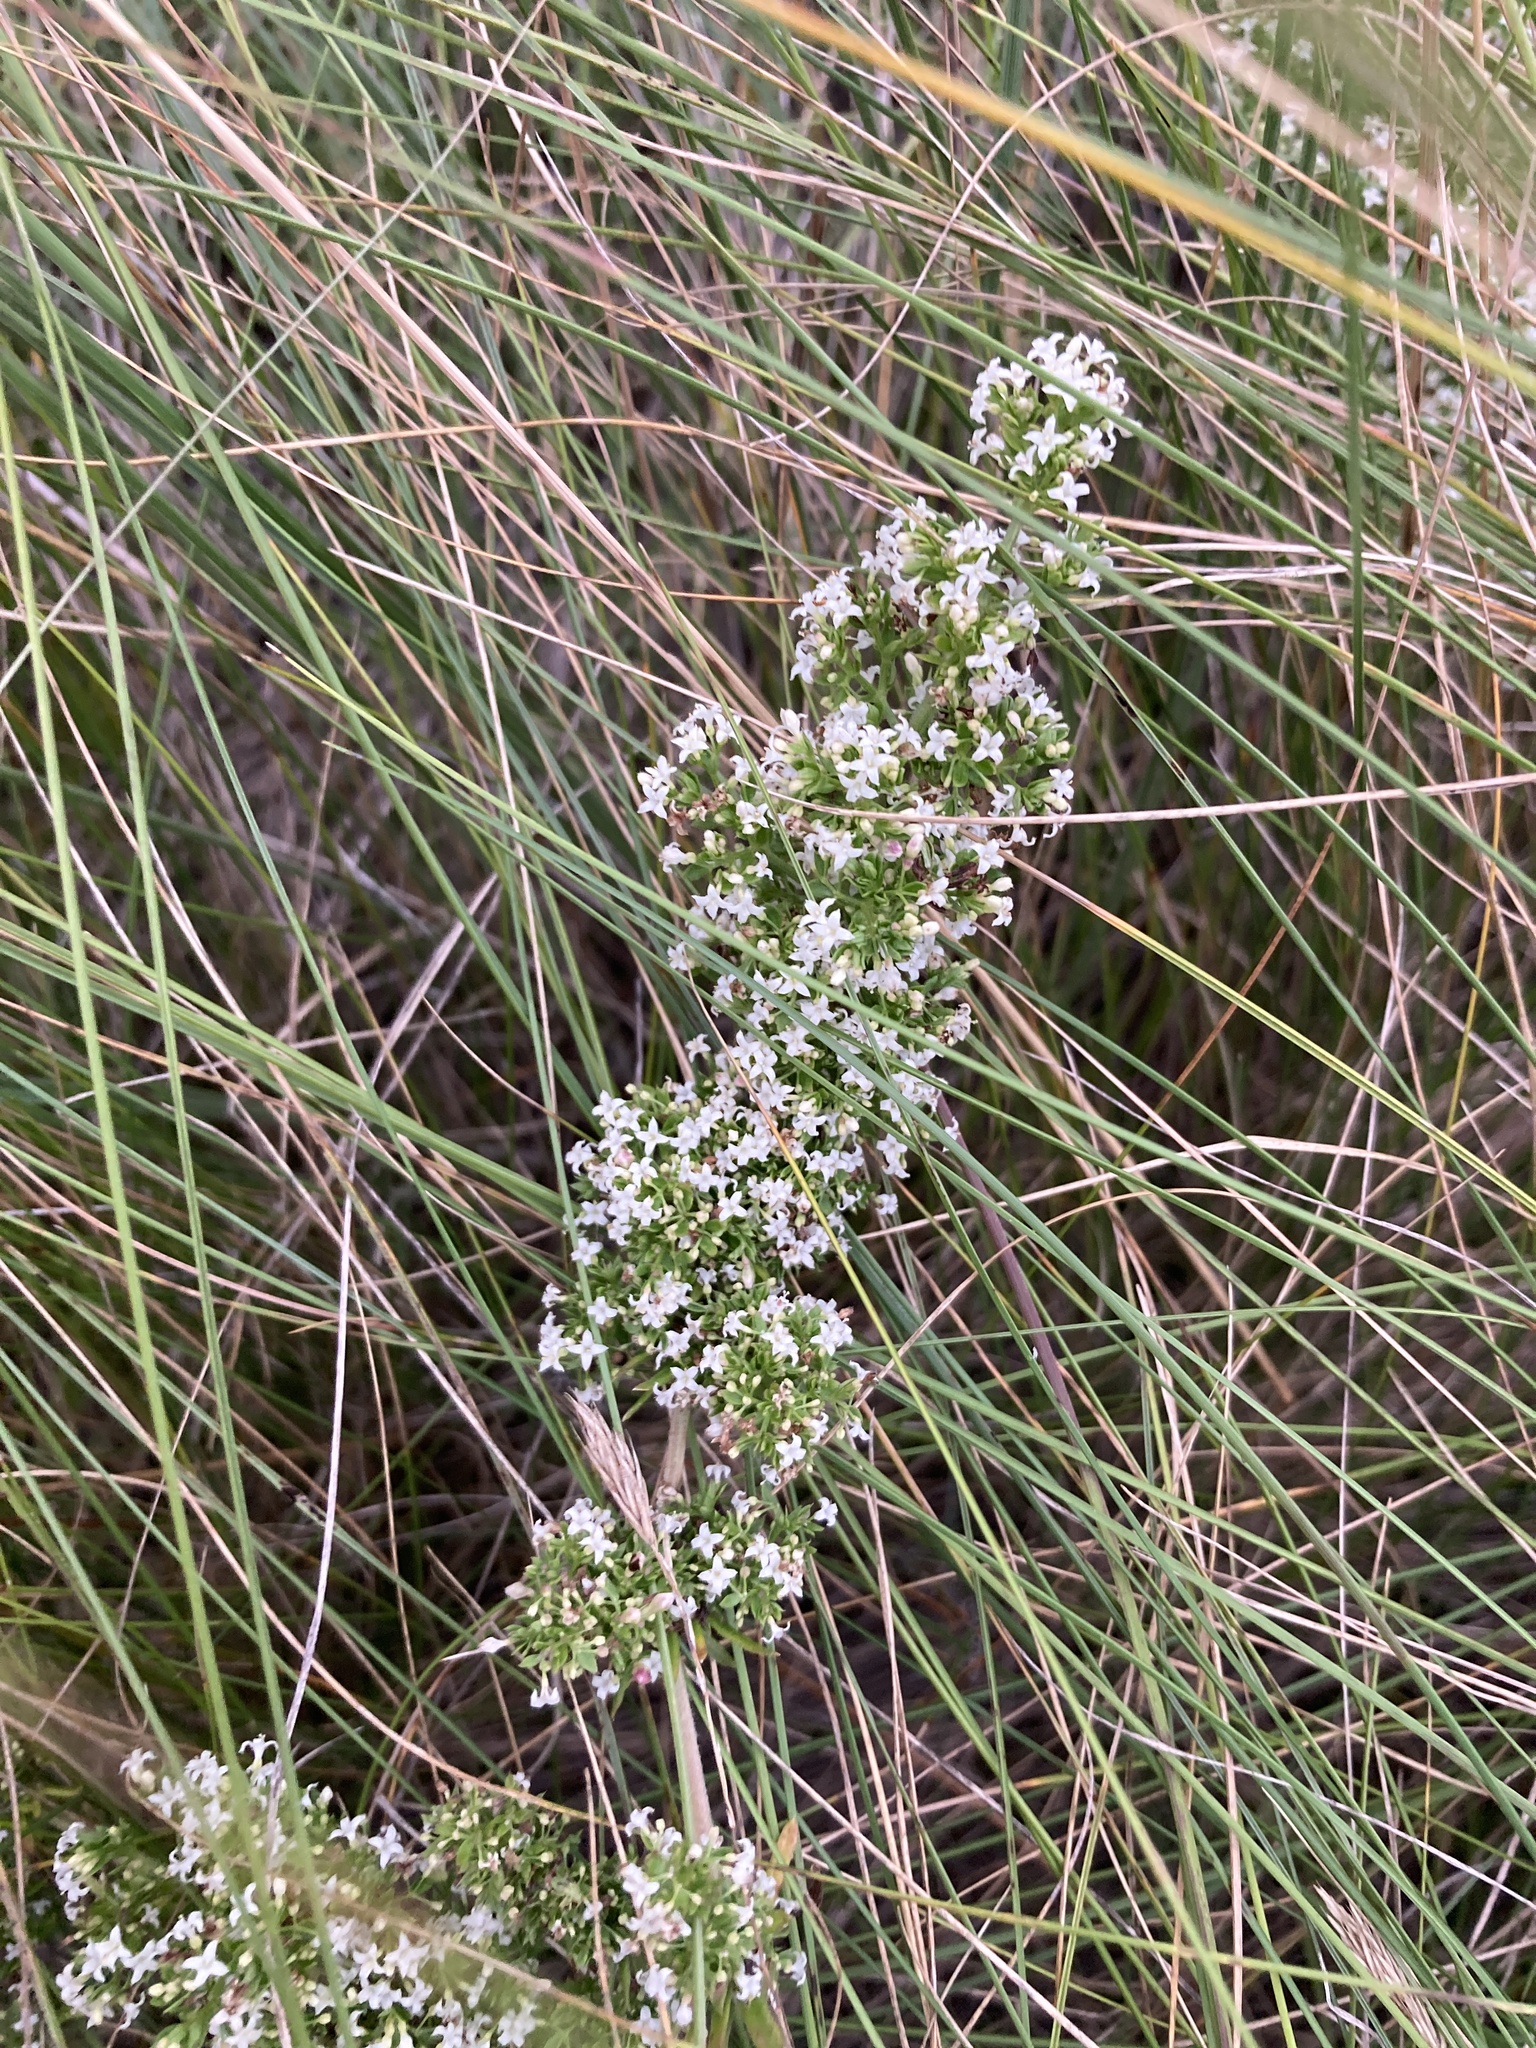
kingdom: Plantae
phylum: Tracheophyta
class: Magnoliopsida
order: Gentianales
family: Rubiaceae
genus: Galium
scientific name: Galium humifusum
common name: Spreading bedstraw
